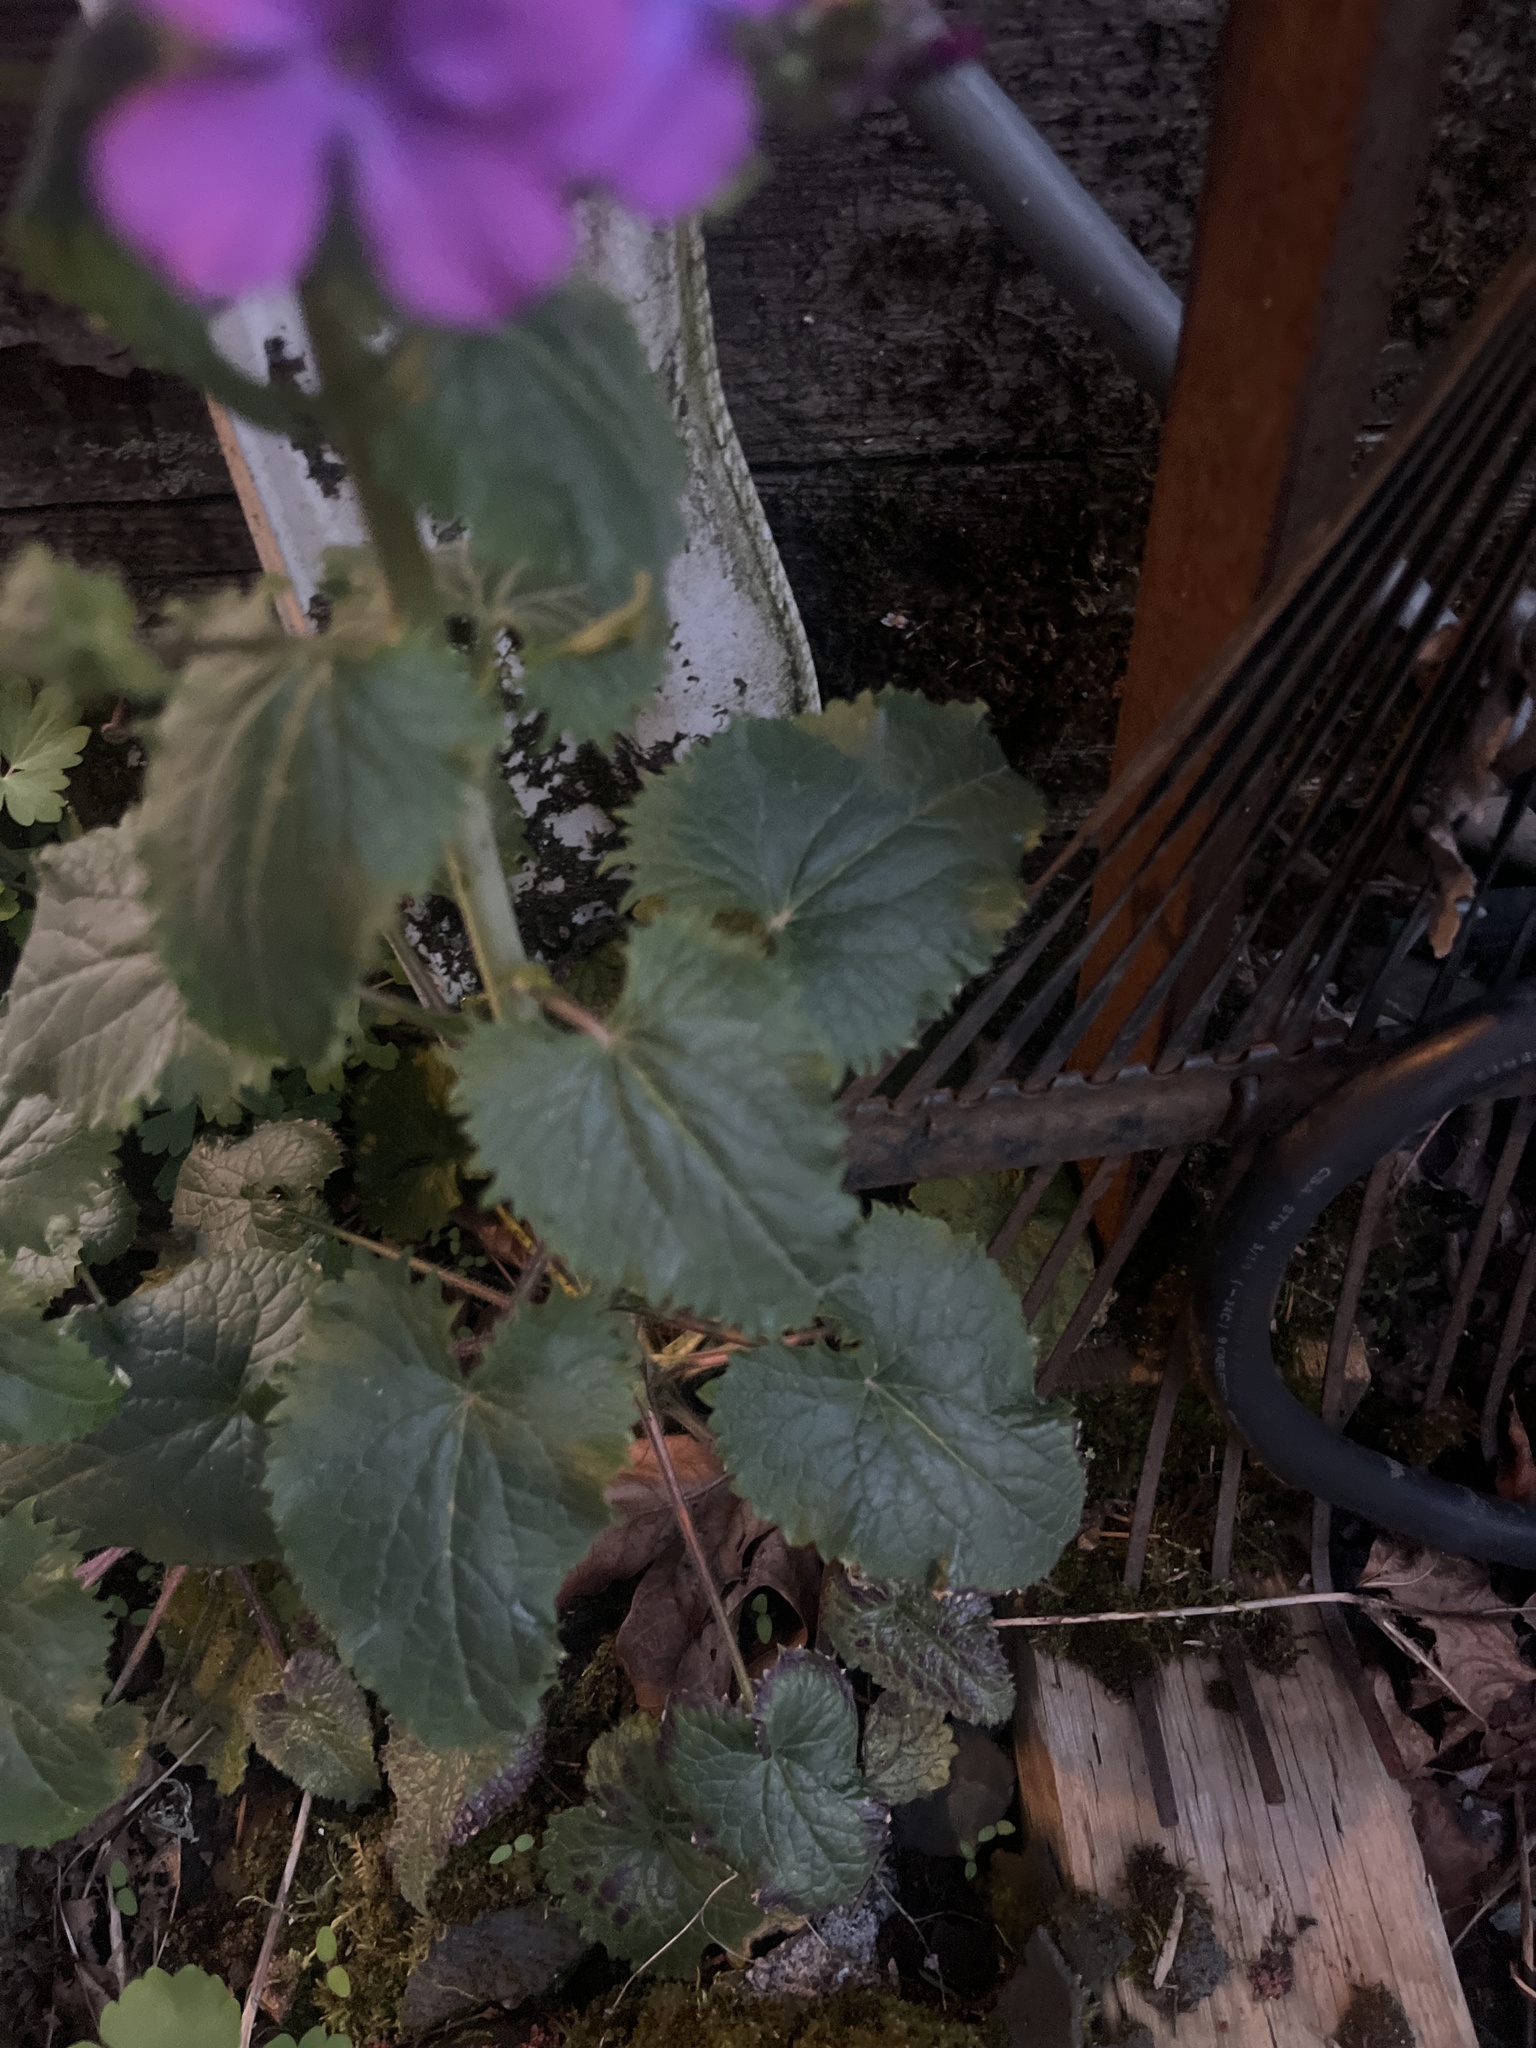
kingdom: Plantae
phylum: Tracheophyta
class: Magnoliopsida
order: Brassicales
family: Brassicaceae
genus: Lunaria
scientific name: Lunaria annua
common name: Honesty
